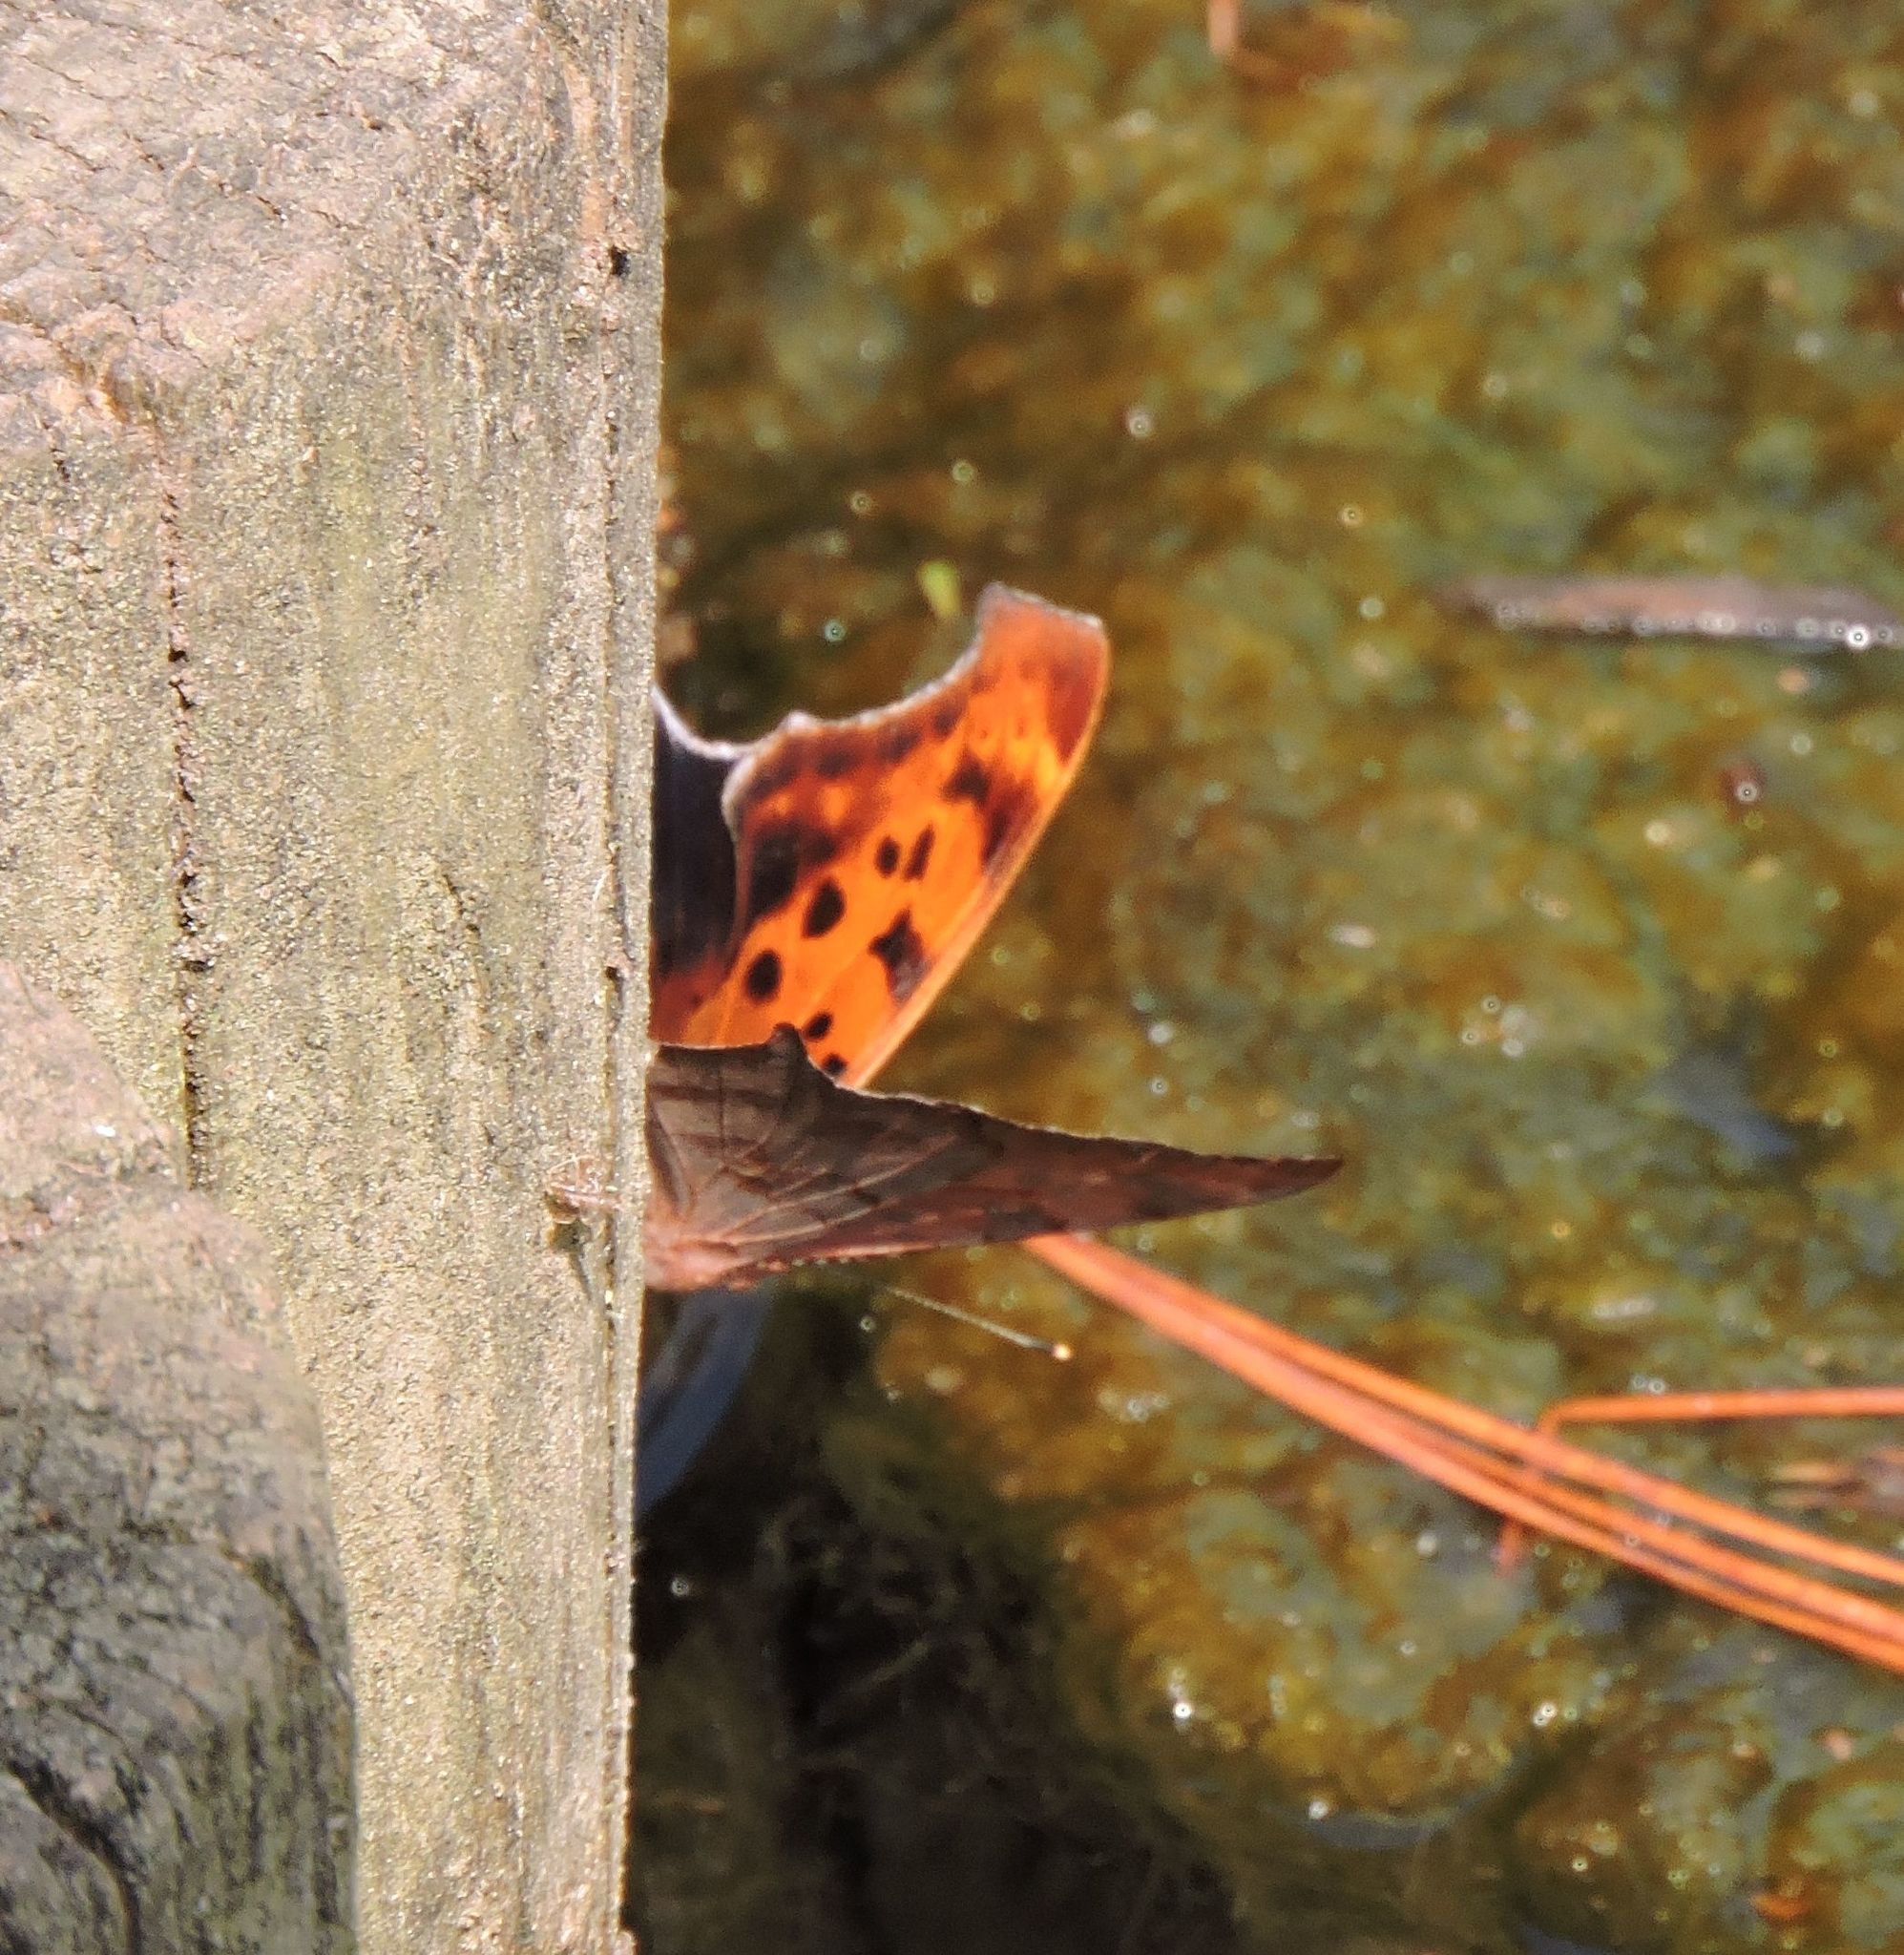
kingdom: Animalia
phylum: Arthropoda
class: Insecta
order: Lepidoptera
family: Nymphalidae
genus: Polygonia
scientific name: Polygonia interrogationis
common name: Question mark
